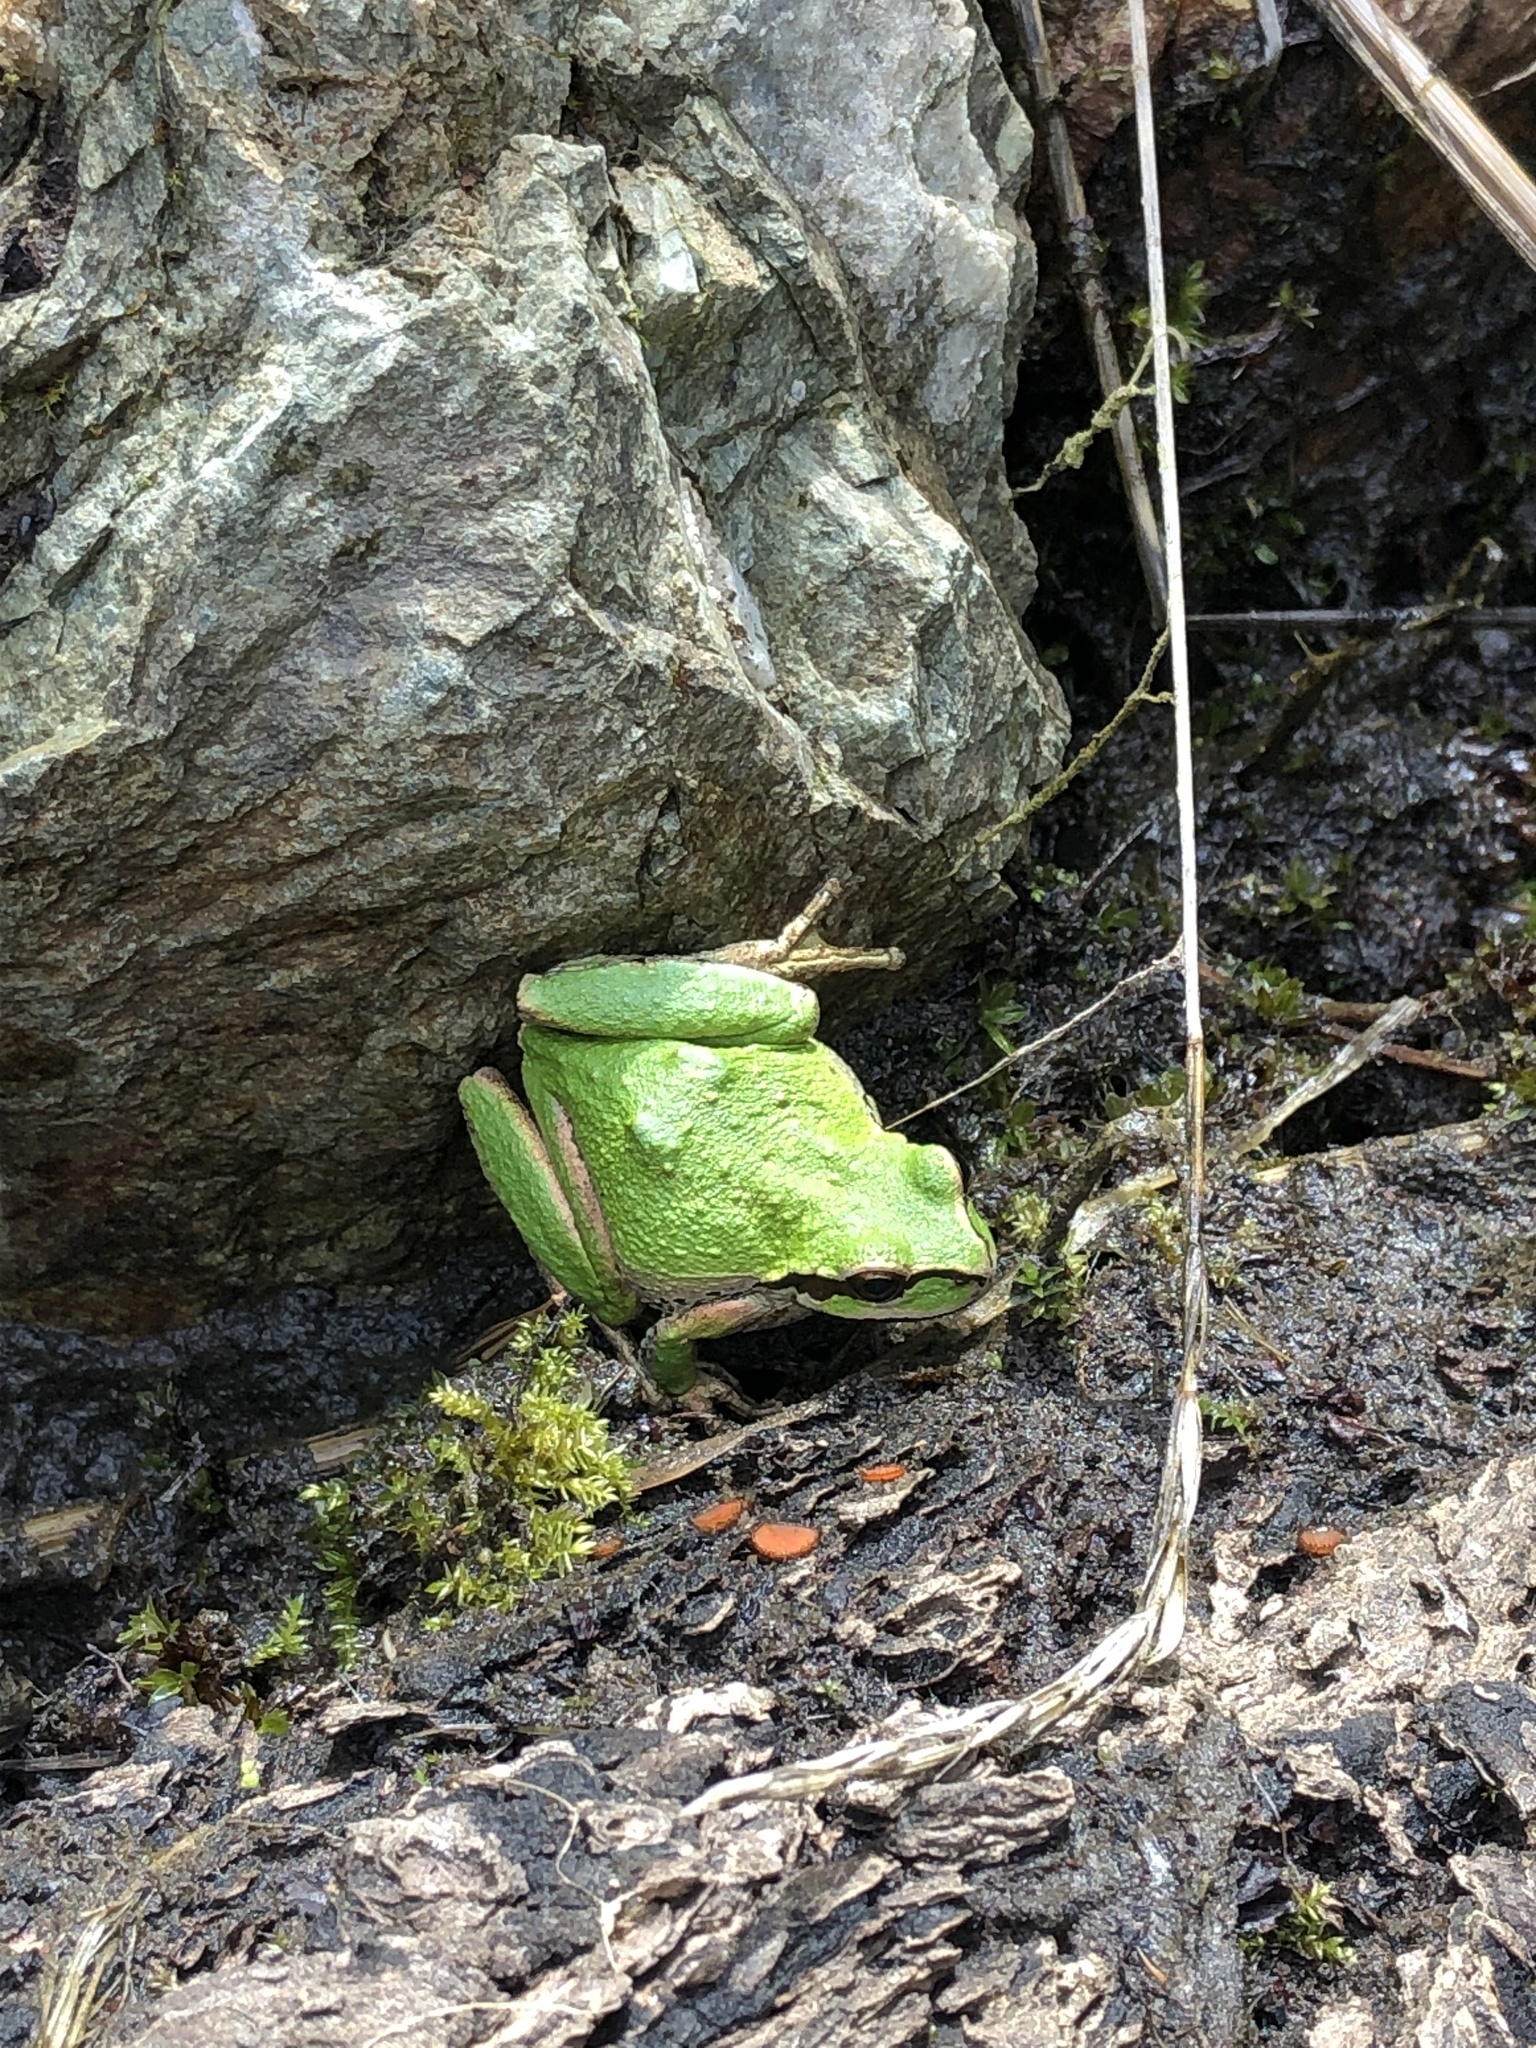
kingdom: Animalia
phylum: Chordata
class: Amphibia
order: Anura
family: Hylidae
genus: Pseudacris
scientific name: Pseudacris regilla
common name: Pacific chorus frog
